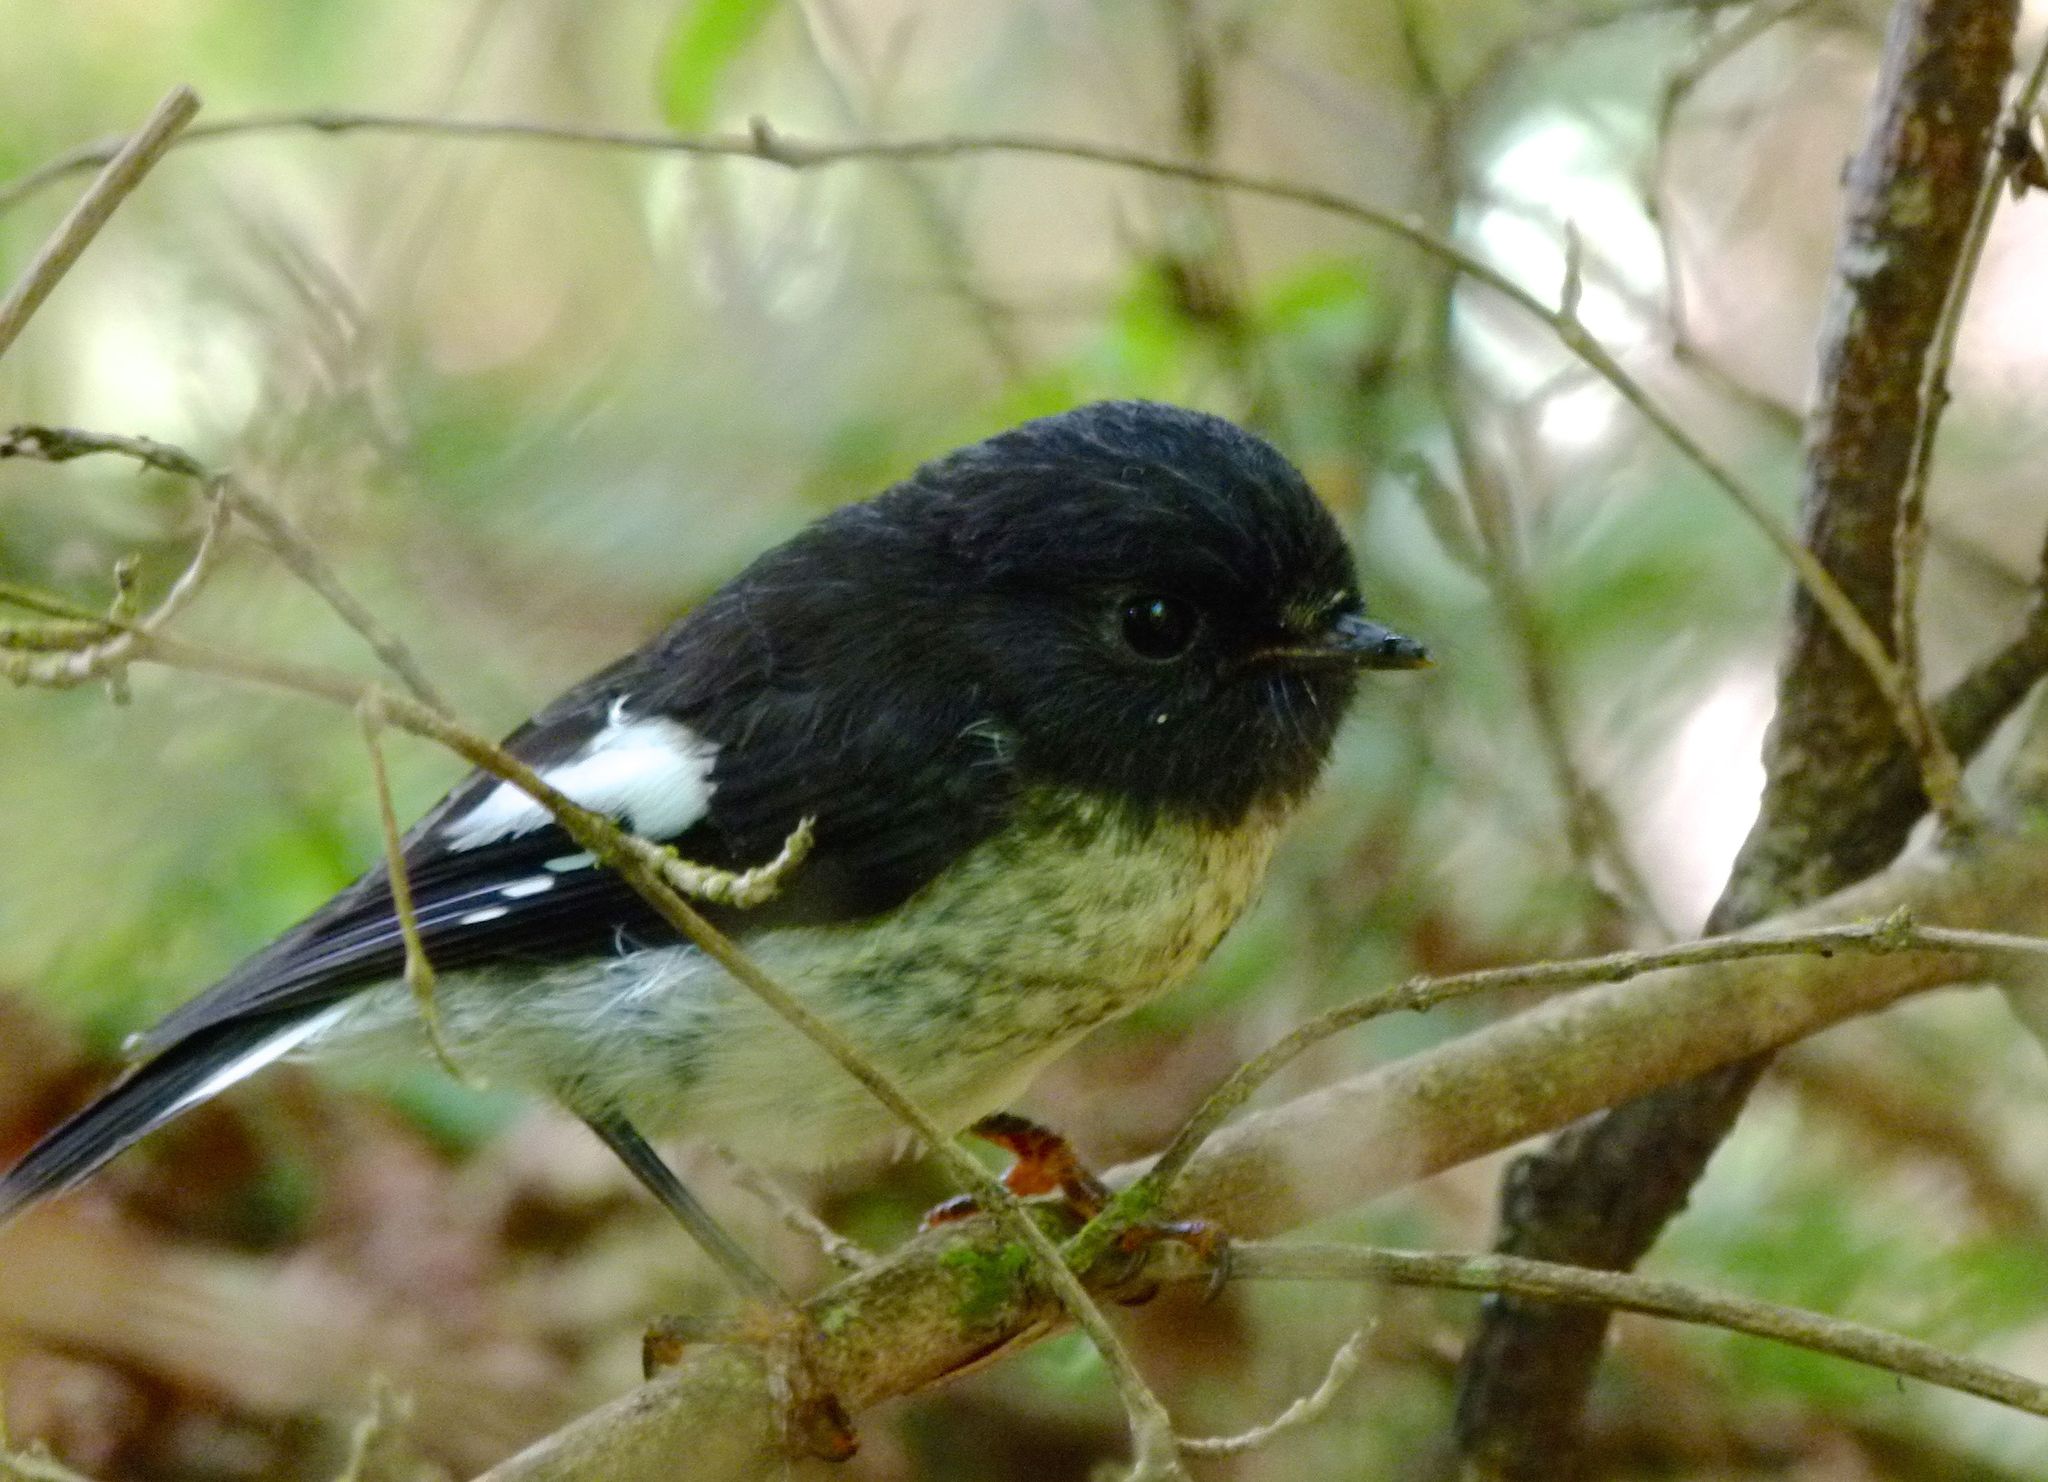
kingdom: Animalia
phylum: Chordata
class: Aves
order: Passeriformes
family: Petroicidae
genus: Petroica
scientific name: Petroica macrocephala
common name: Tomtit
